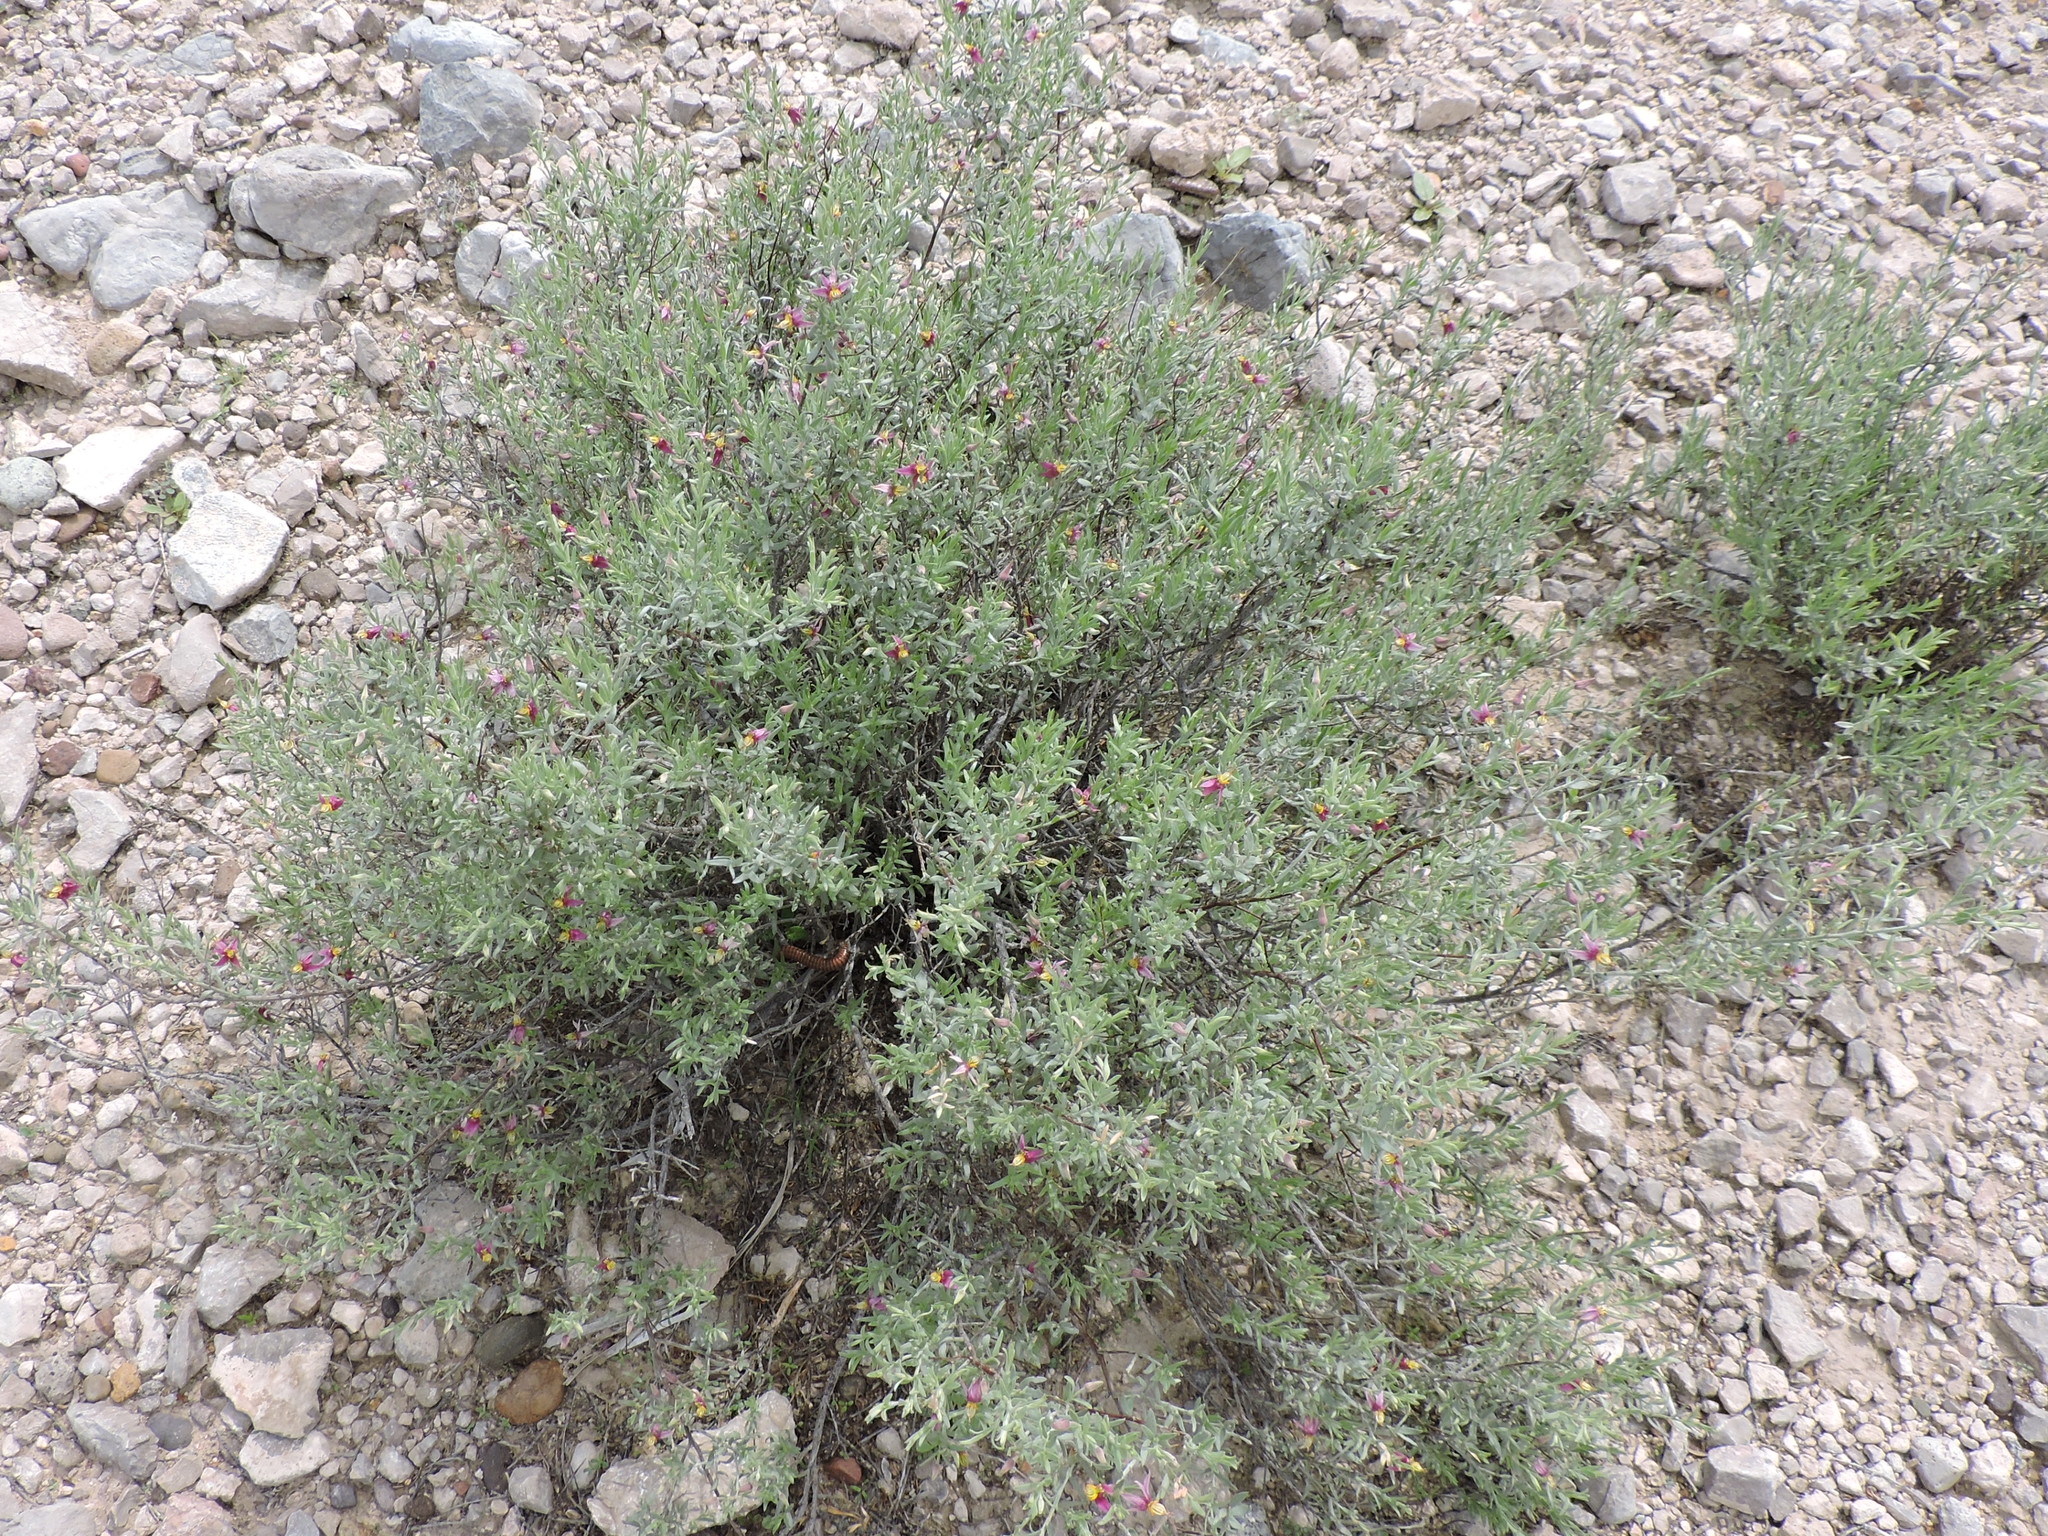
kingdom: Plantae
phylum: Tracheophyta
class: Magnoliopsida
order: Zygophyllales
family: Krameriaceae
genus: Krameria
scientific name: Krameria bicolor
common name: White ratany
